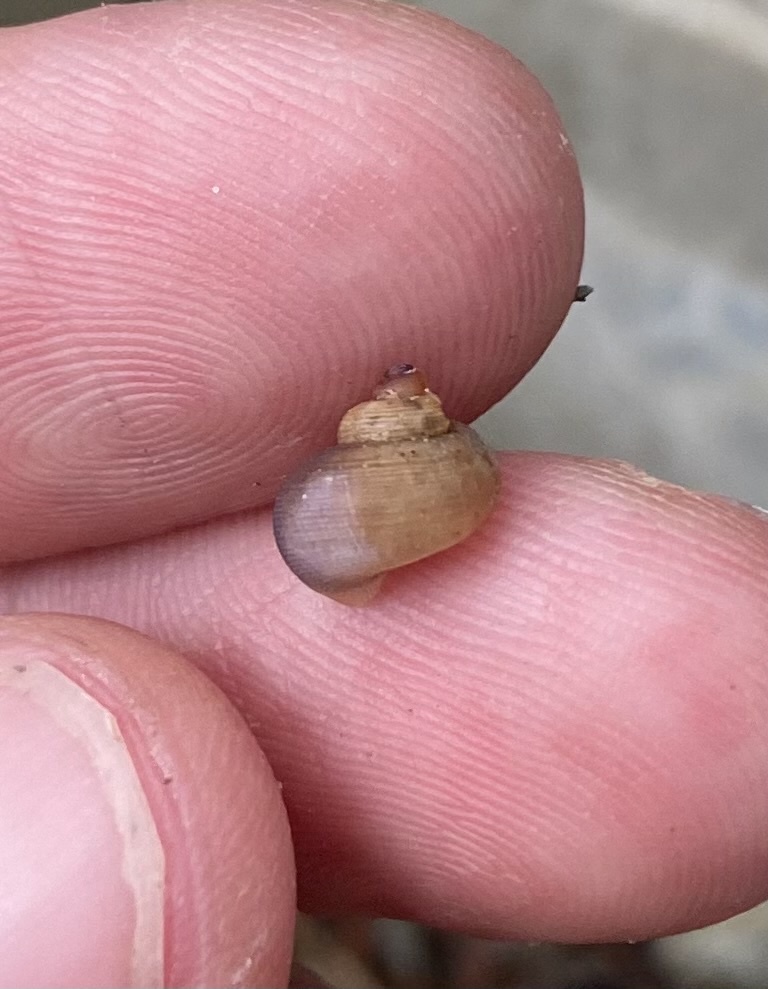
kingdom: Animalia
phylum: Mollusca
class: Gastropoda
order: Littorinimorpha
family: Pomatiidae
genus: Pomatias
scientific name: Pomatias rivularis
